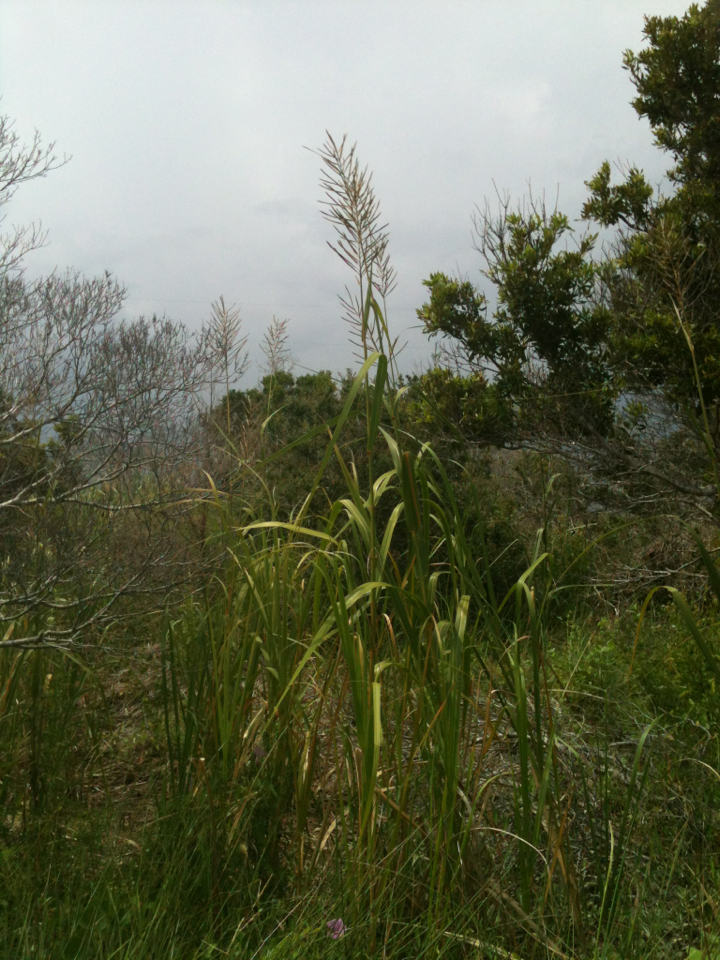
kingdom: Plantae
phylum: Tracheophyta
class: Liliopsida
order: Poales
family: Poaceae
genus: Sporobolus
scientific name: Sporobolus cynosuroides
